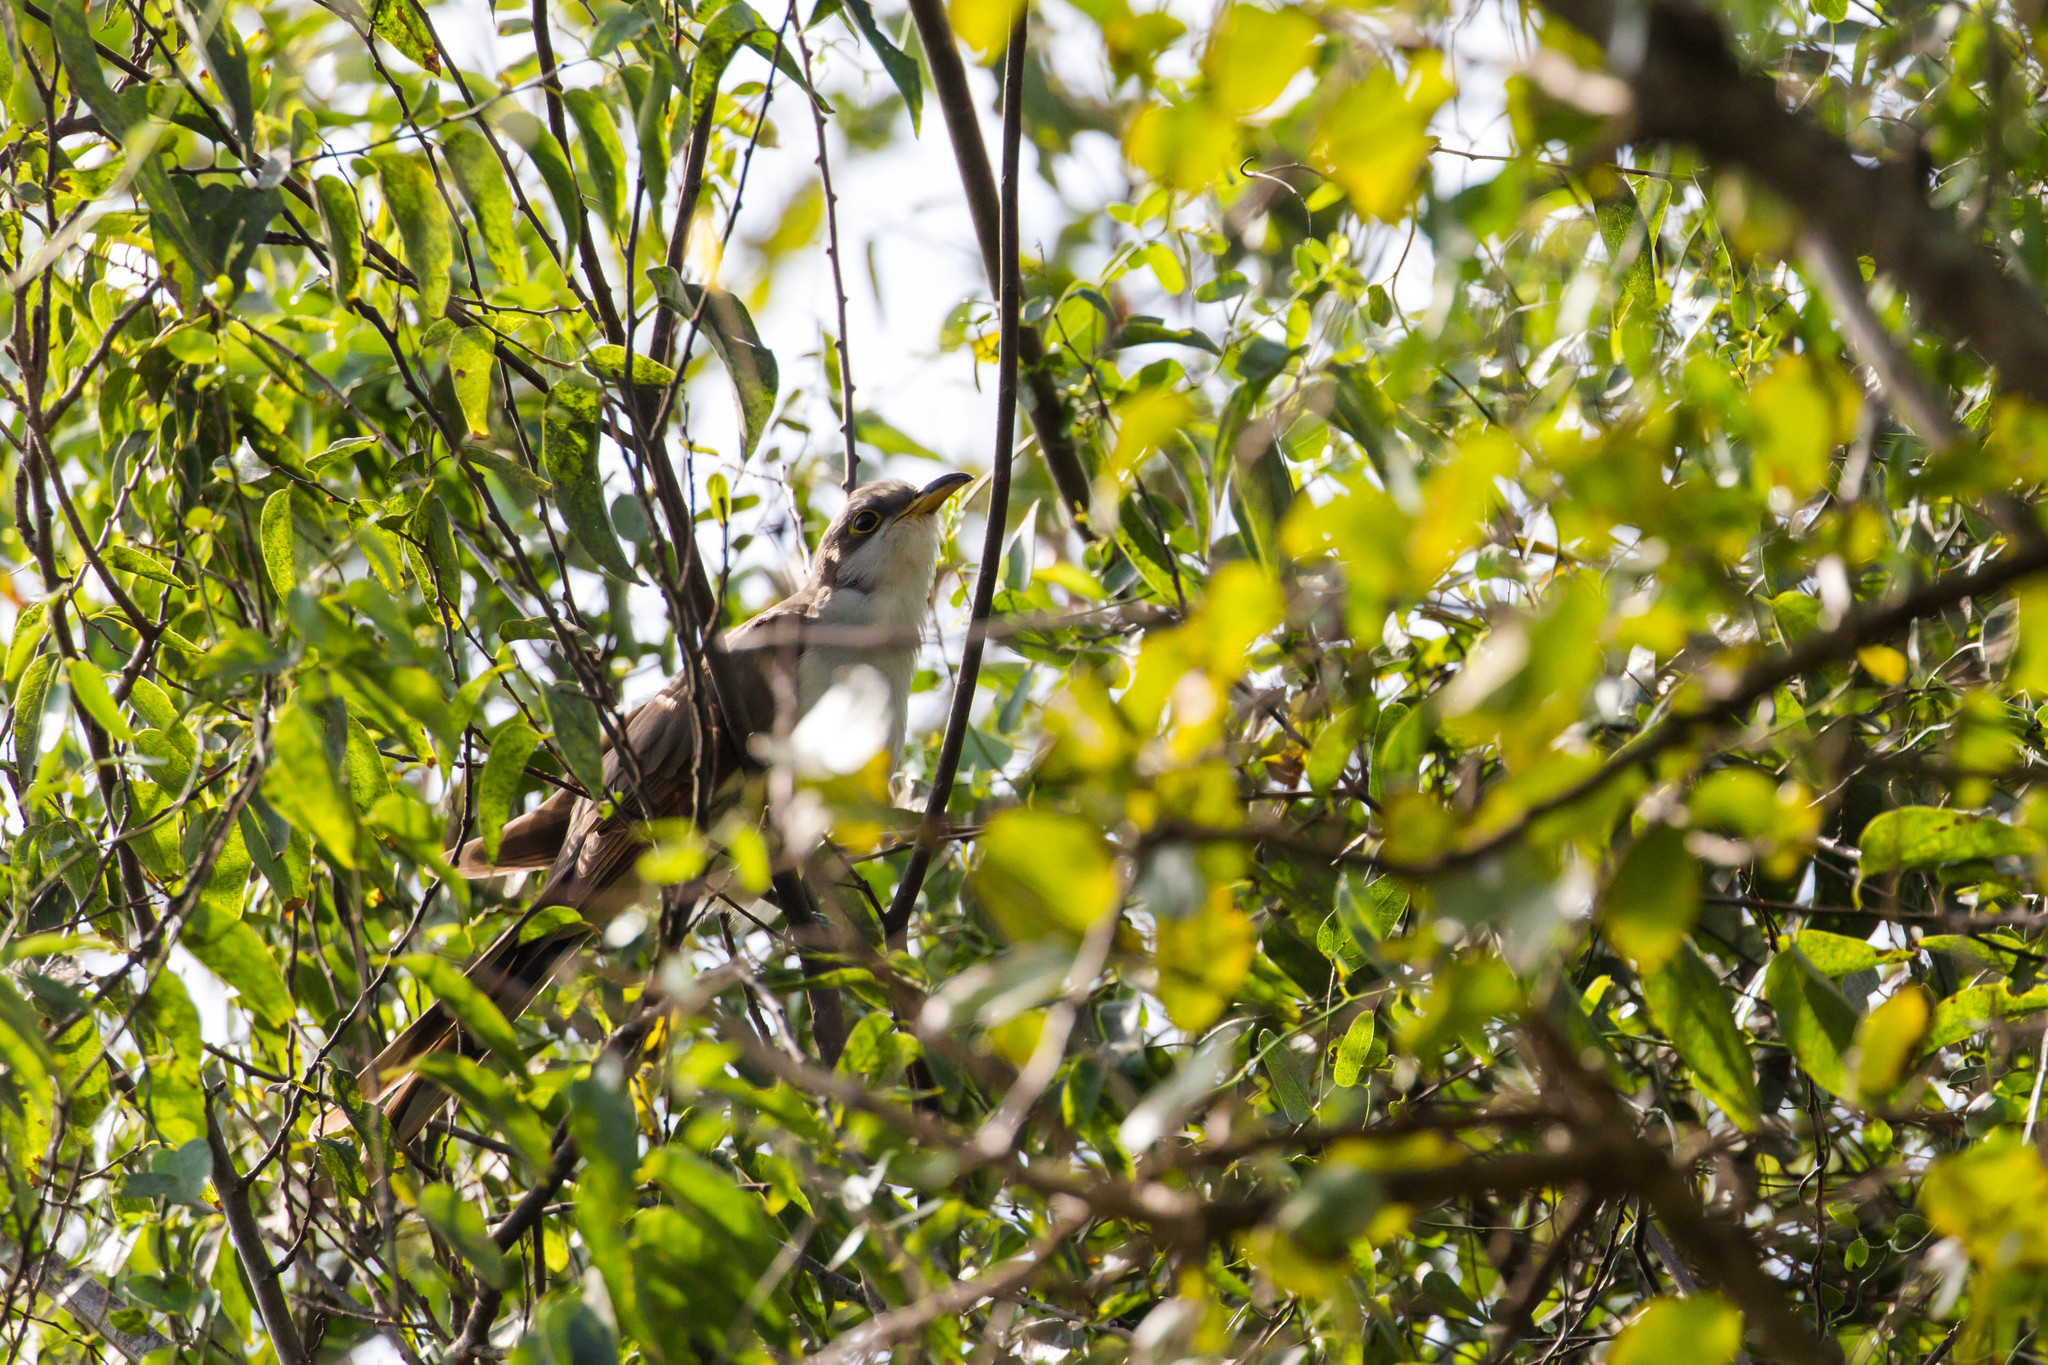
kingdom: Animalia
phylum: Chordata
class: Aves
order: Cuculiformes
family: Cuculidae
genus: Coccyzus
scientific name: Coccyzus americanus
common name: Yellow-billed cuckoo
